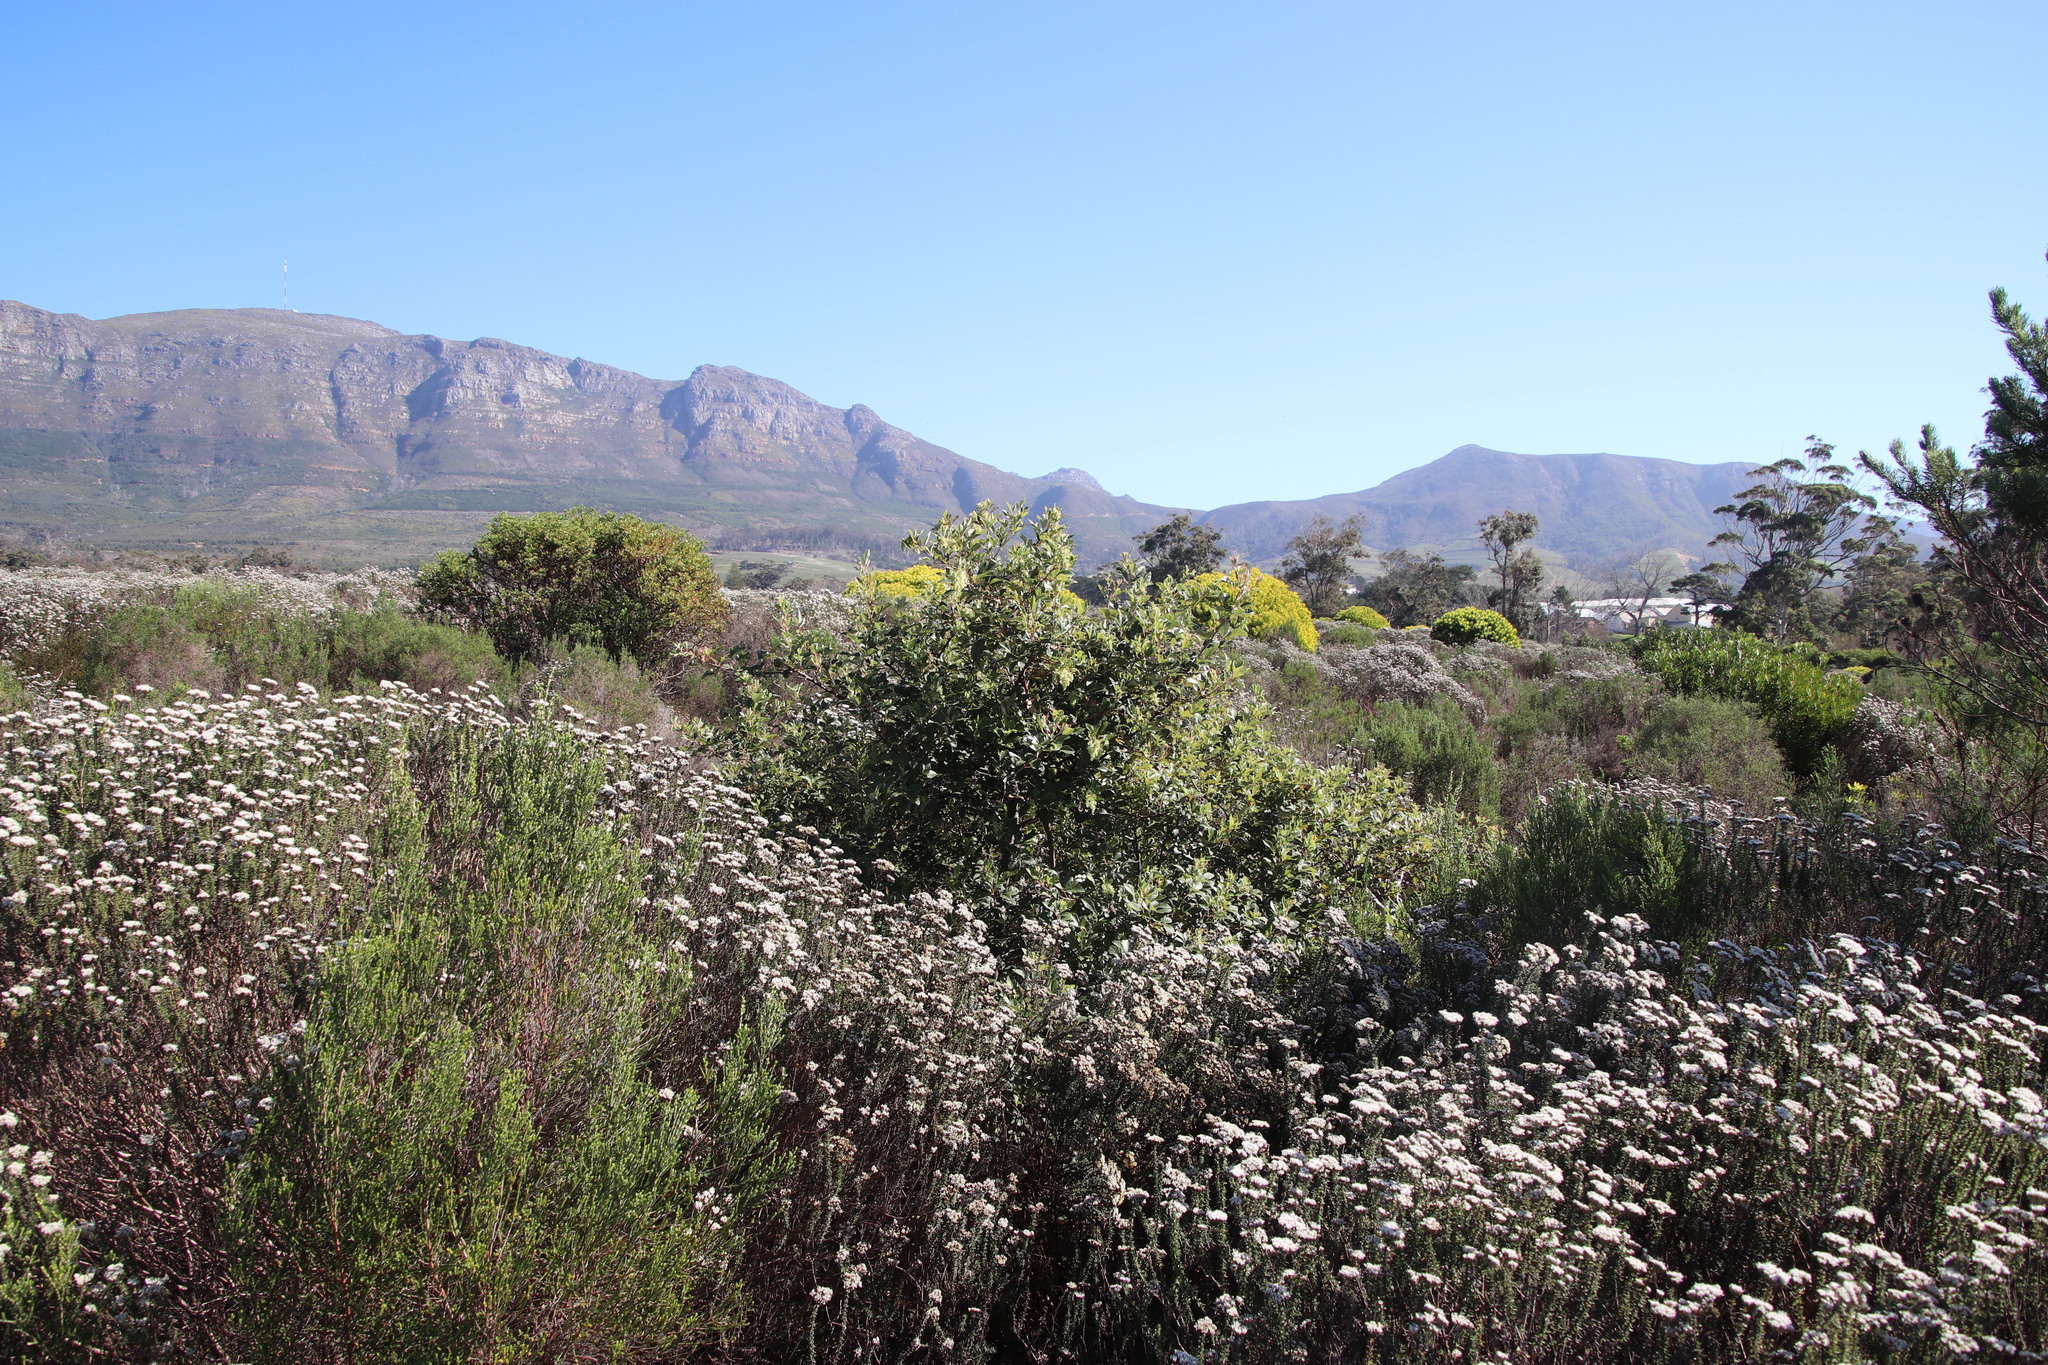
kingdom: Plantae
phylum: Tracheophyta
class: Magnoliopsida
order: Sapindales
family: Anacardiaceae
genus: Searsia
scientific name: Searsia tomentosa
